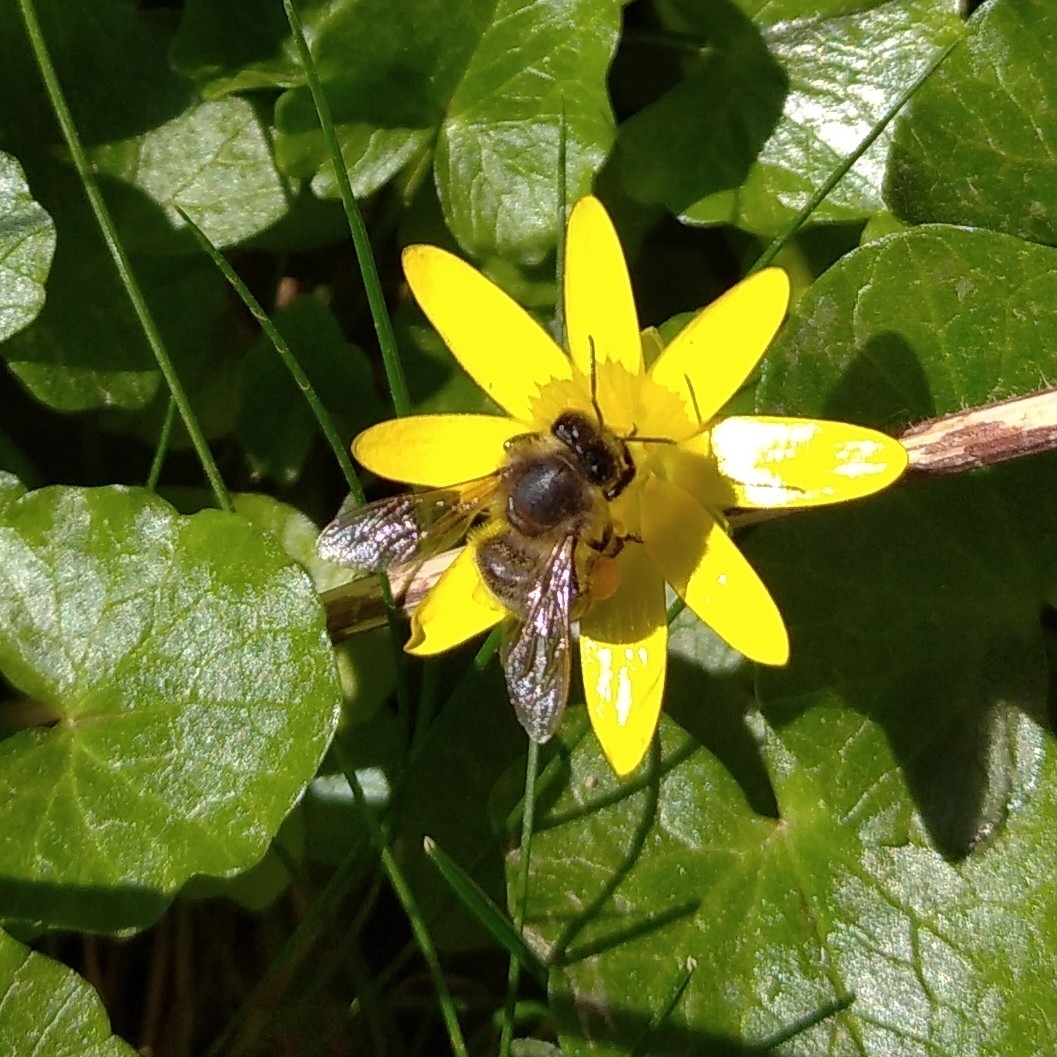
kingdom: Animalia
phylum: Arthropoda
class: Insecta
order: Hymenoptera
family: Apidae
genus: Apis
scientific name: Apis mellifera
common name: Honey bee
